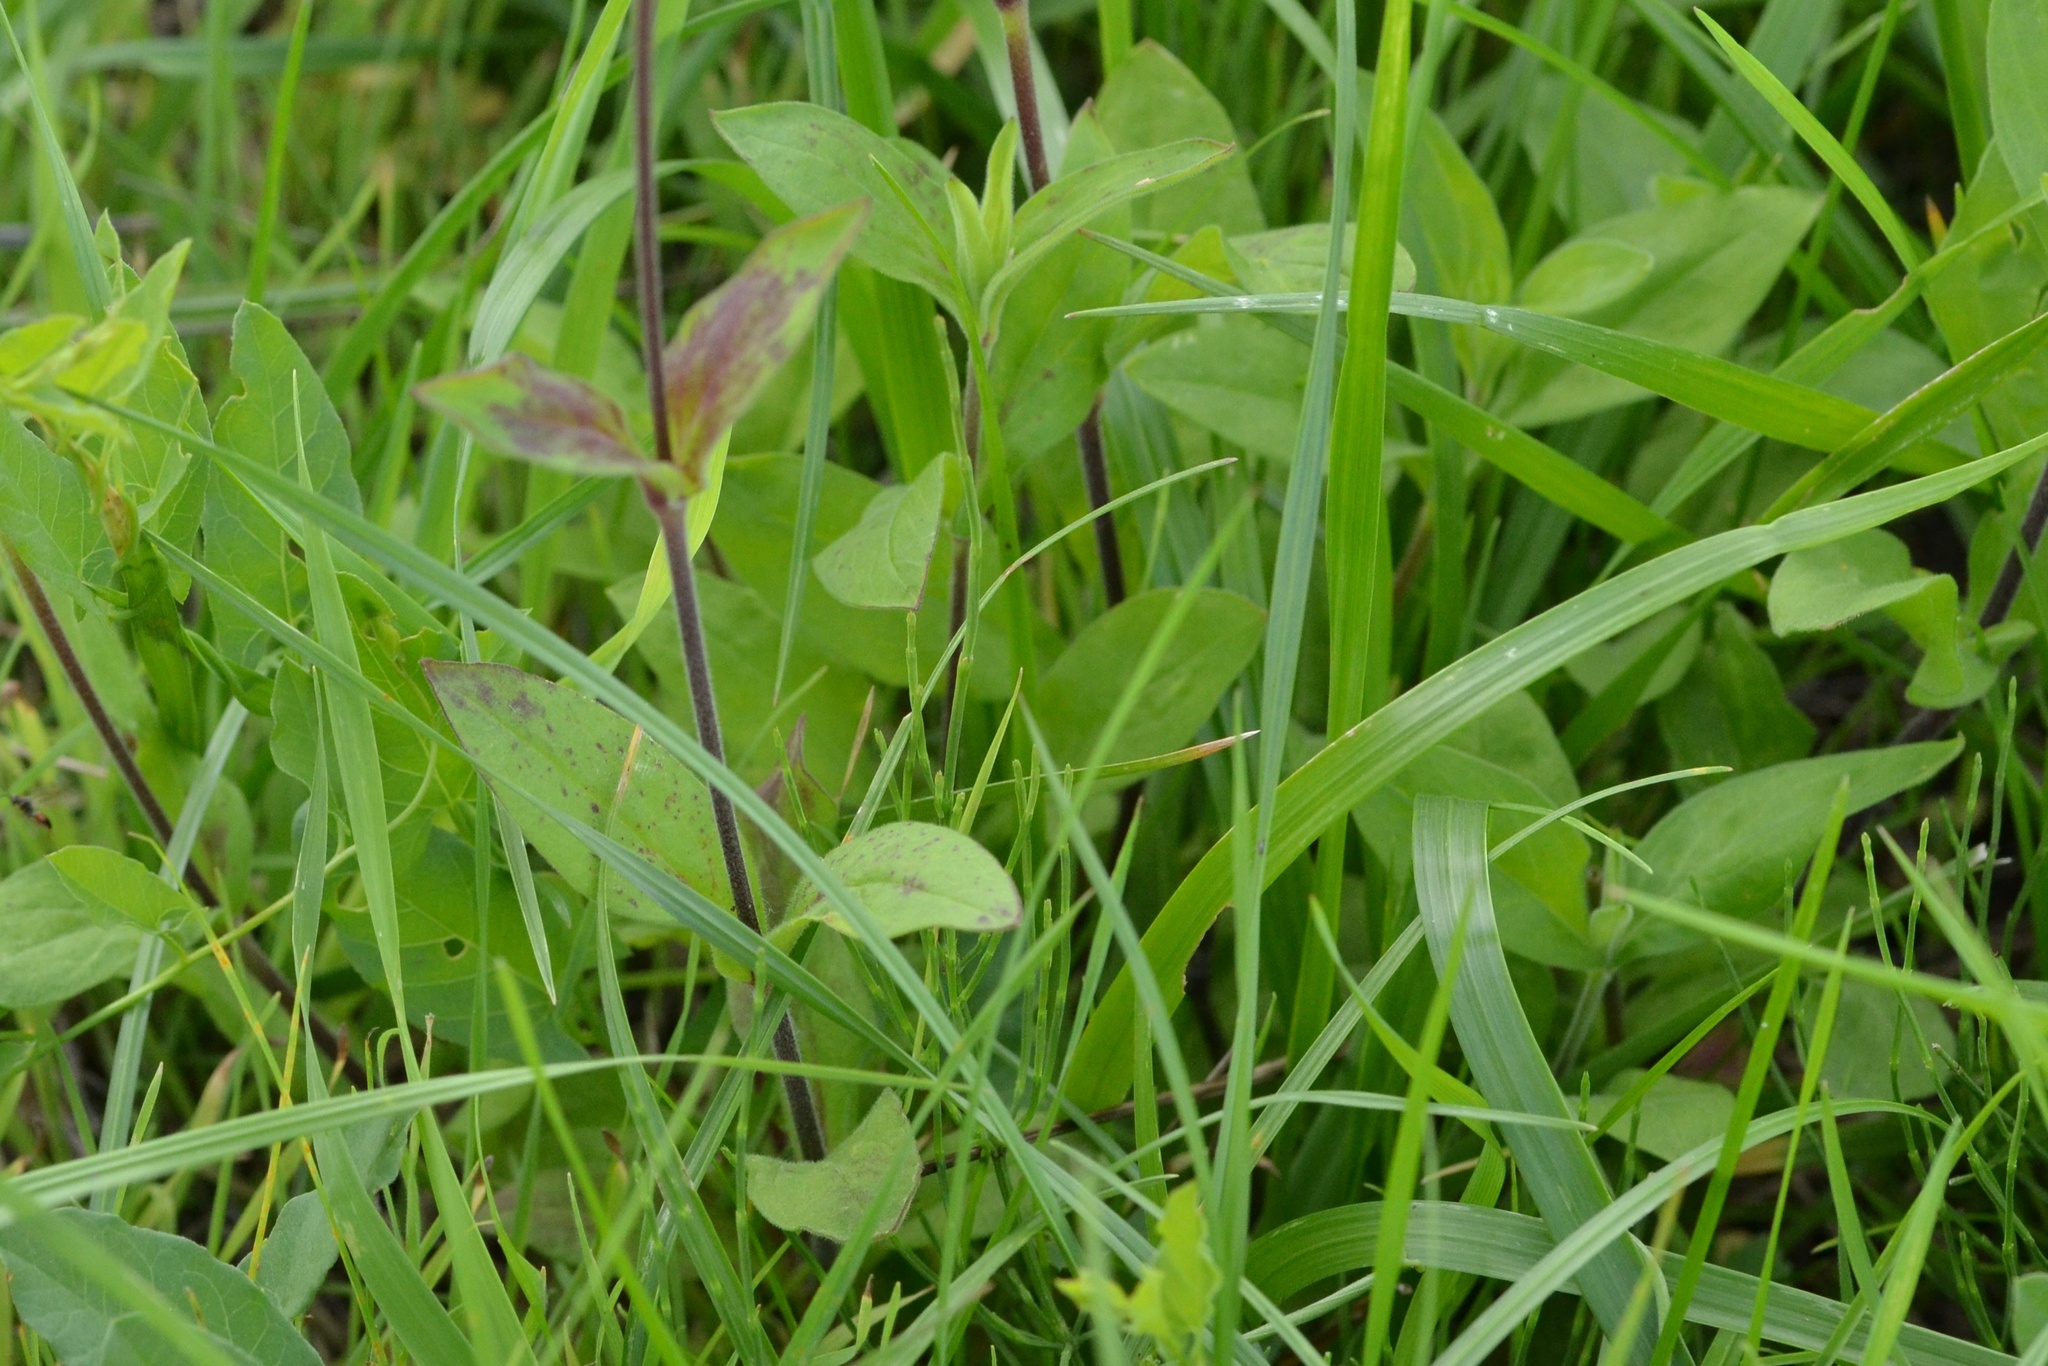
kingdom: Plantae
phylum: Tracheophyta
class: Magnoliopsida
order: Caryophyllales
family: Caryophyllaceae
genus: Silene
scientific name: Silene latifolia
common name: White campion
